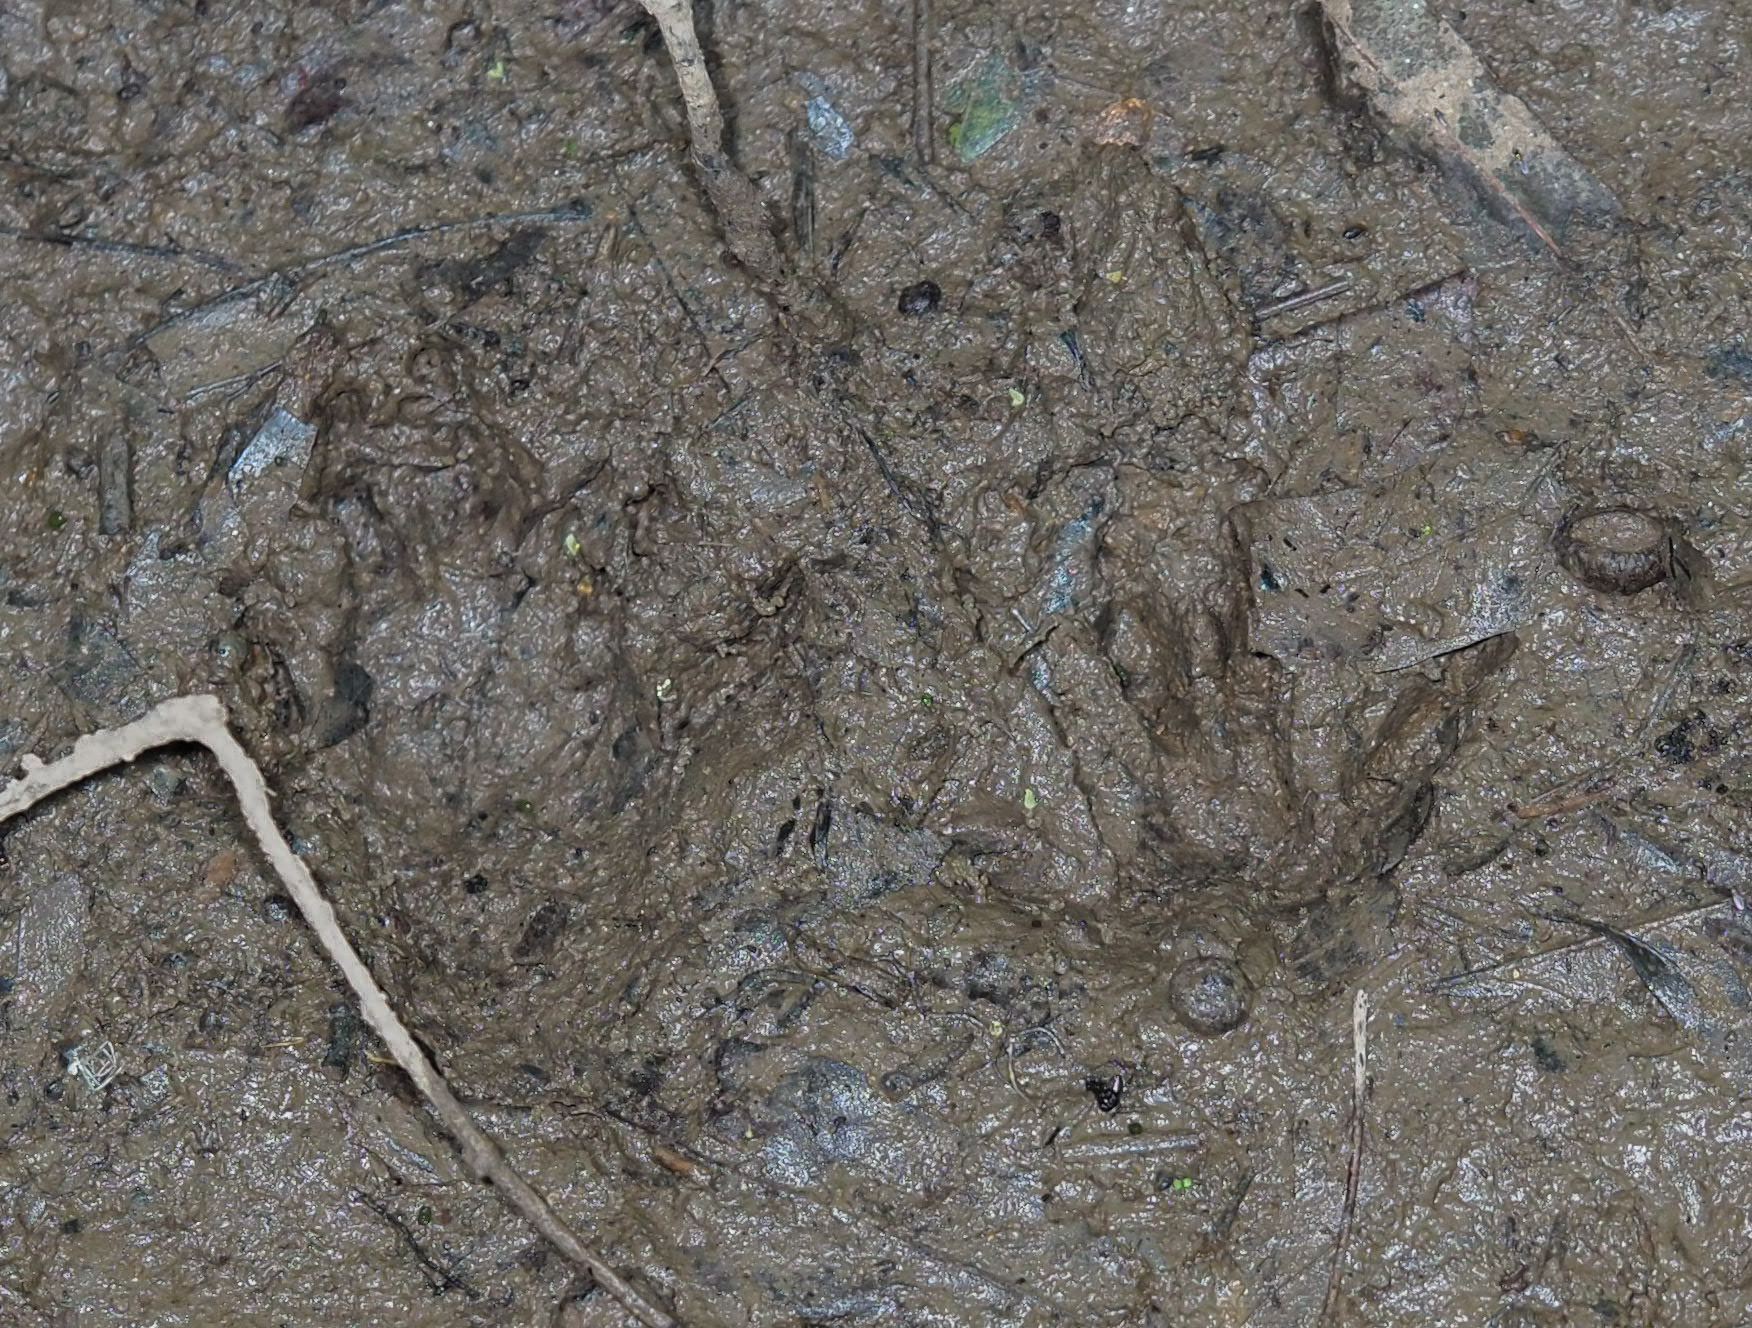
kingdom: Animalia
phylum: Chordata
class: Mammalia
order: Carnivora
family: Procyonidae
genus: Procyon
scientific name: Procyon lotor
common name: Raccoon
